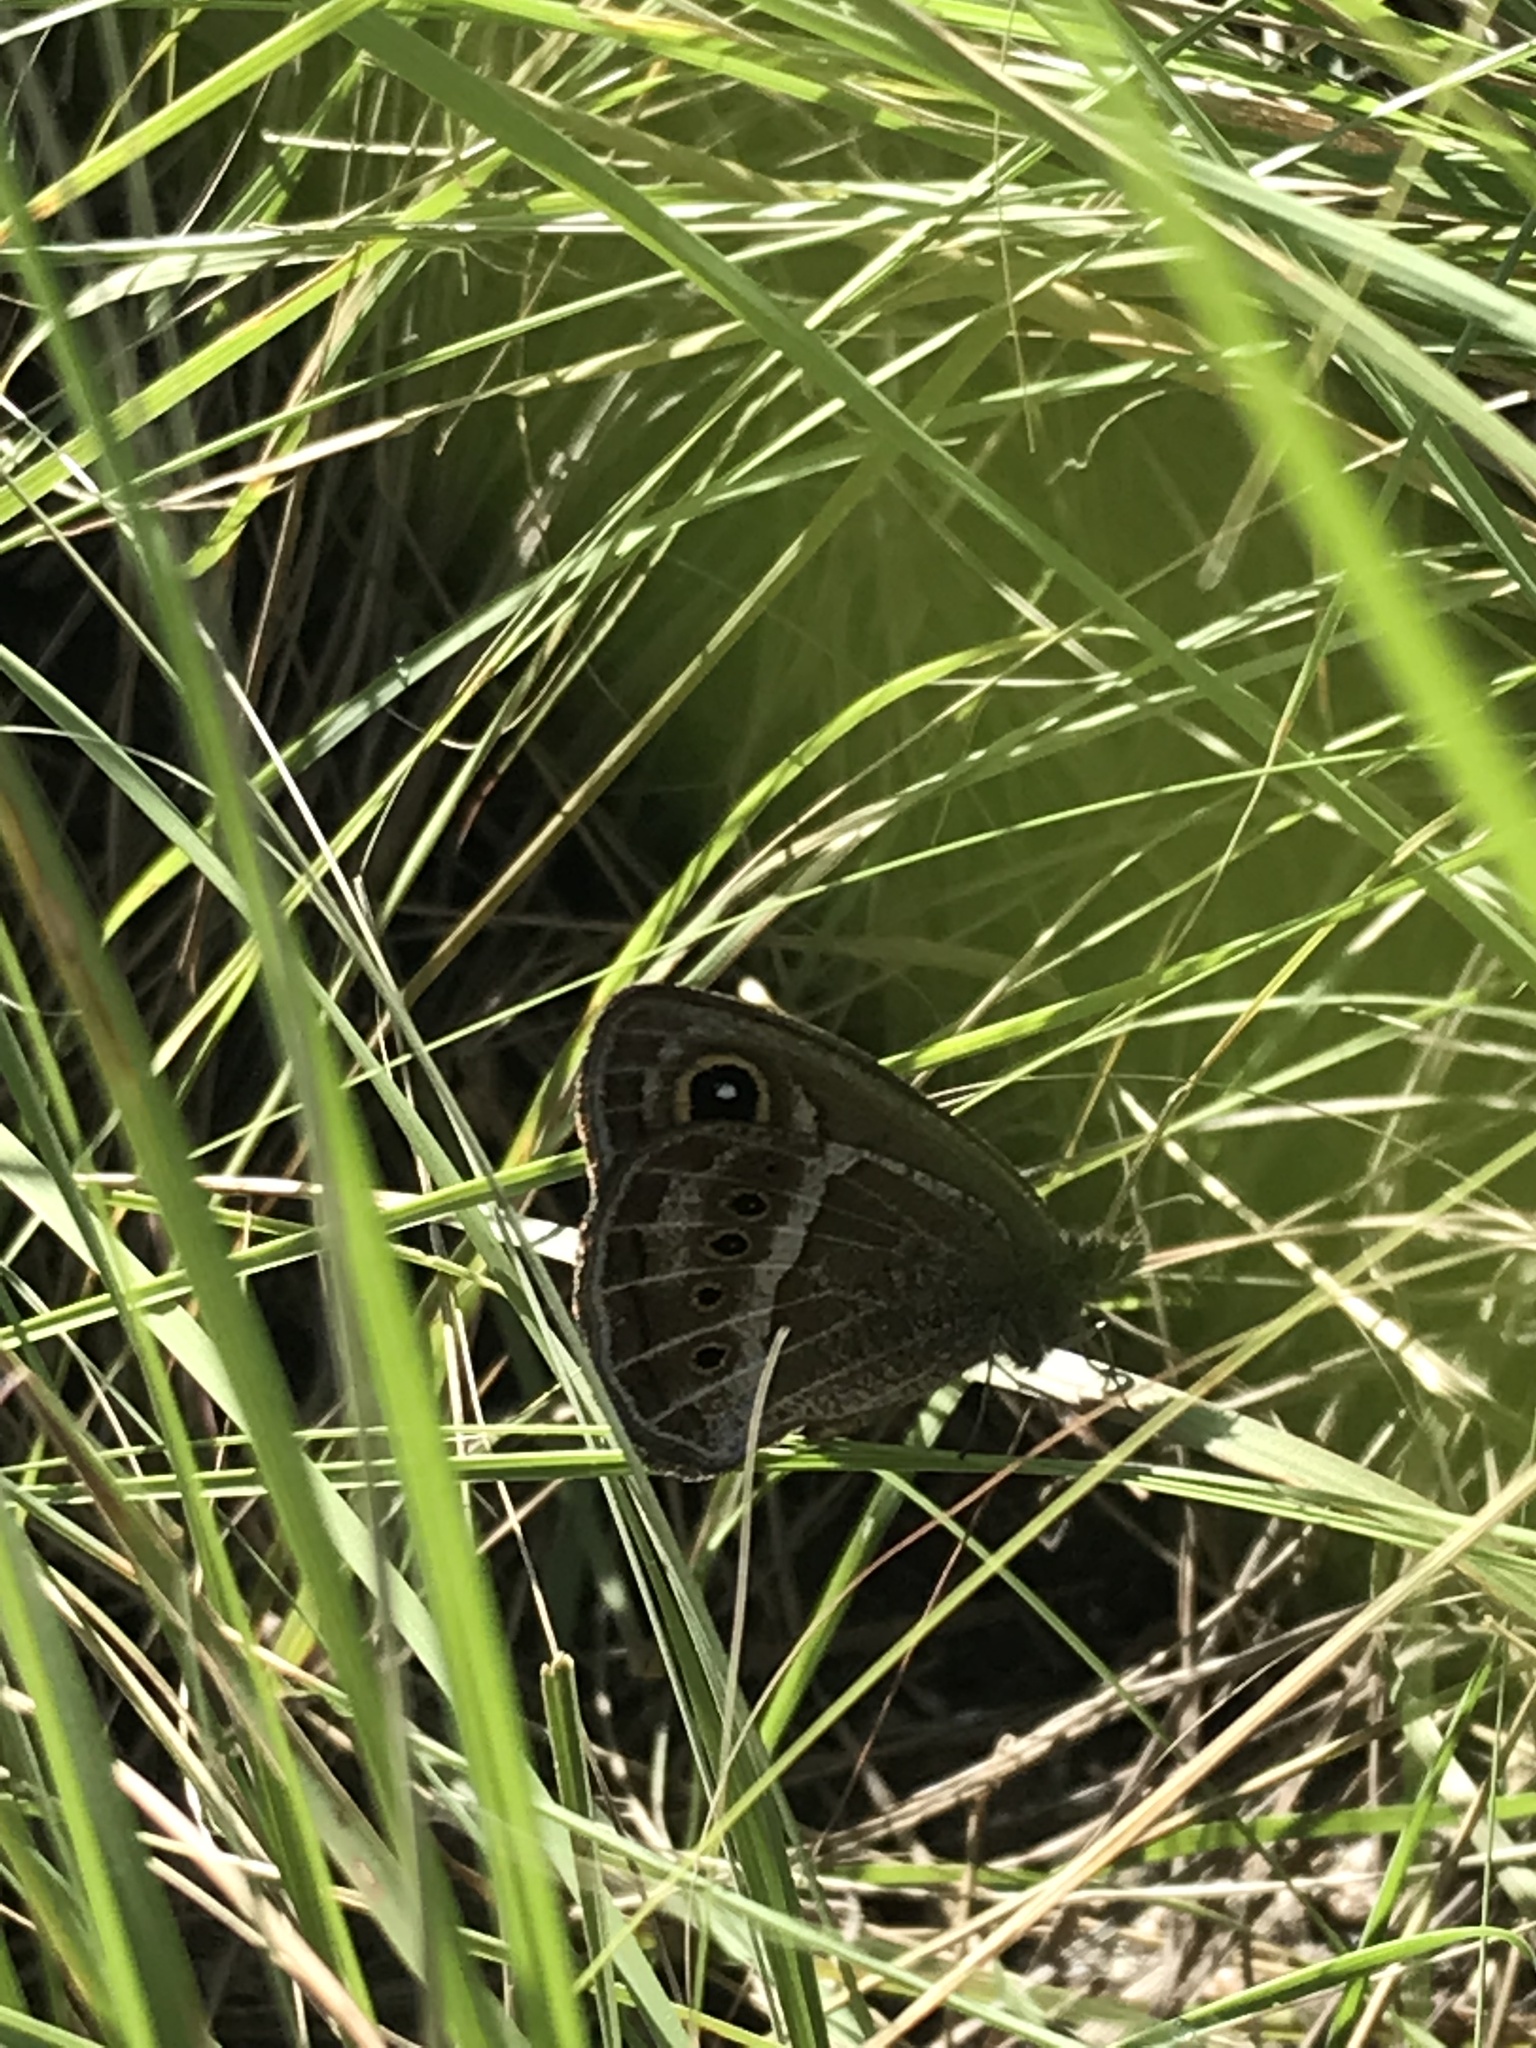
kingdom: Animalia
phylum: Arthropoda
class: Insecta
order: Lepidoptera
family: Nymphalidae
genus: Pampasatyrus
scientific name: Pampasatyrus gyrtone
